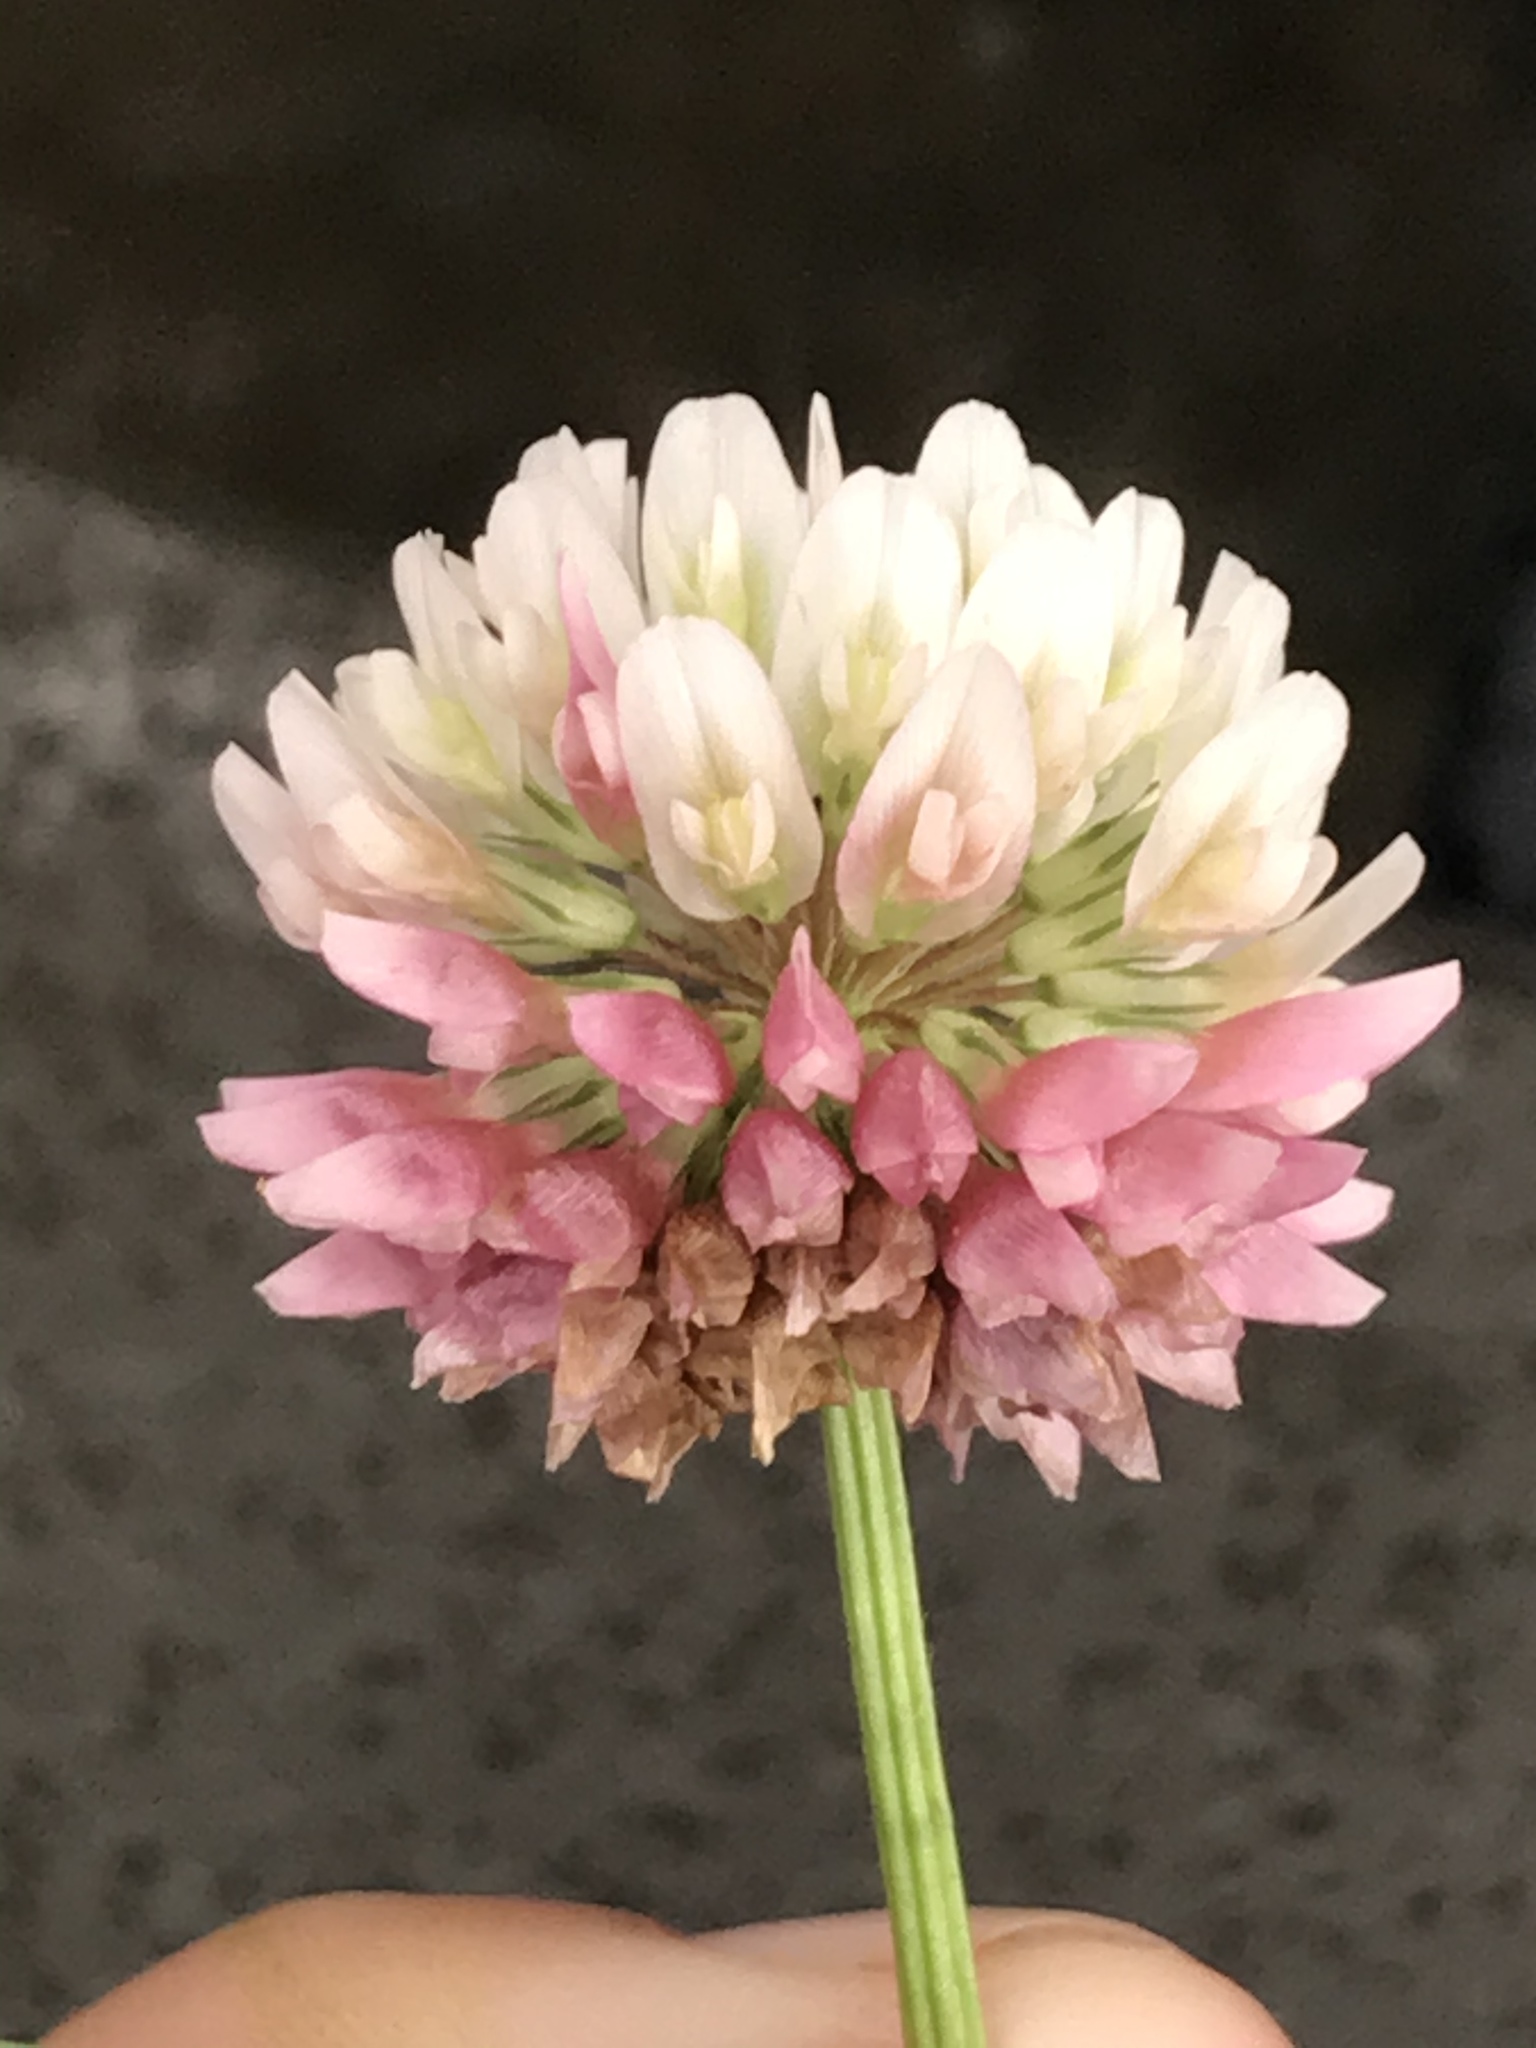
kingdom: Plantae
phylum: Tracheophyta
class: Magnoliopsida
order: Fabales
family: Fabaceae
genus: Trifolium
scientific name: Trifolium hybridum
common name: Alsike clover
